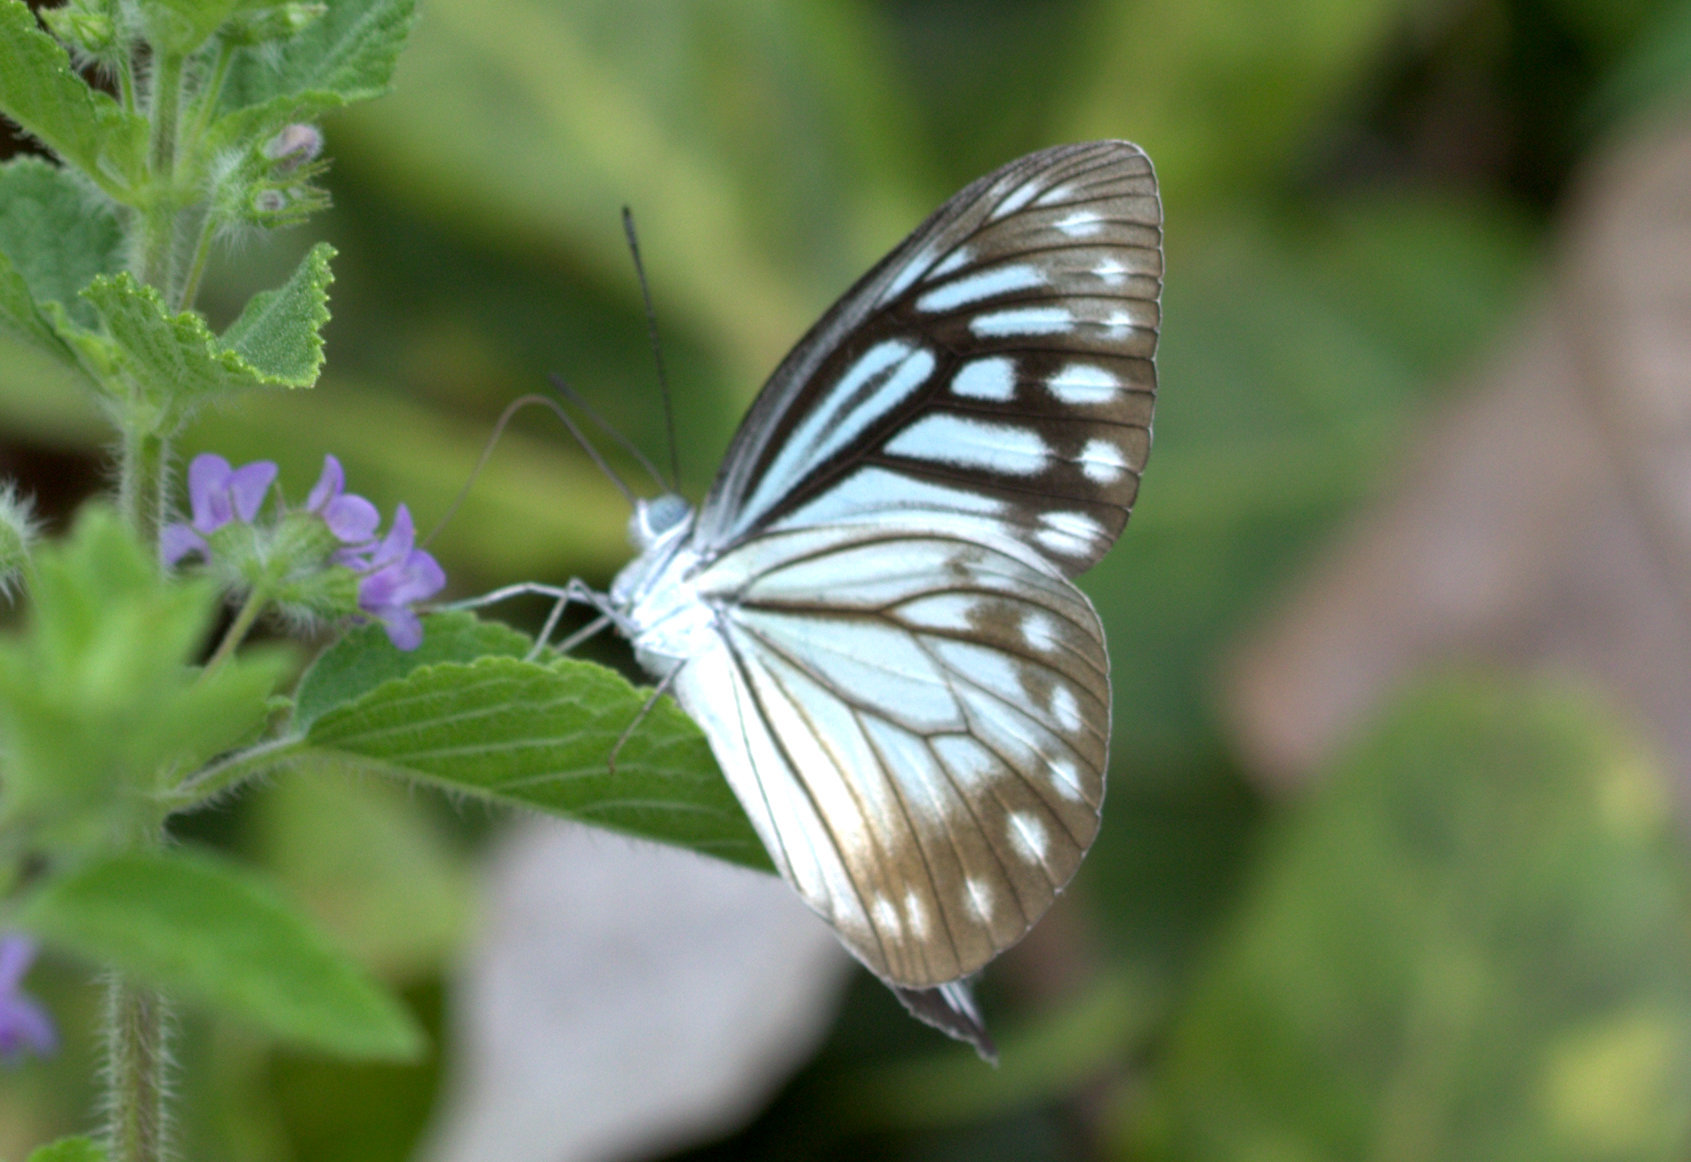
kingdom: Animalia
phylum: Arthropoda
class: Insecta
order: Lepidoptera
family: Pieridae
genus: Pareronia
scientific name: Pareronia hippia
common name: Indian wanderer
